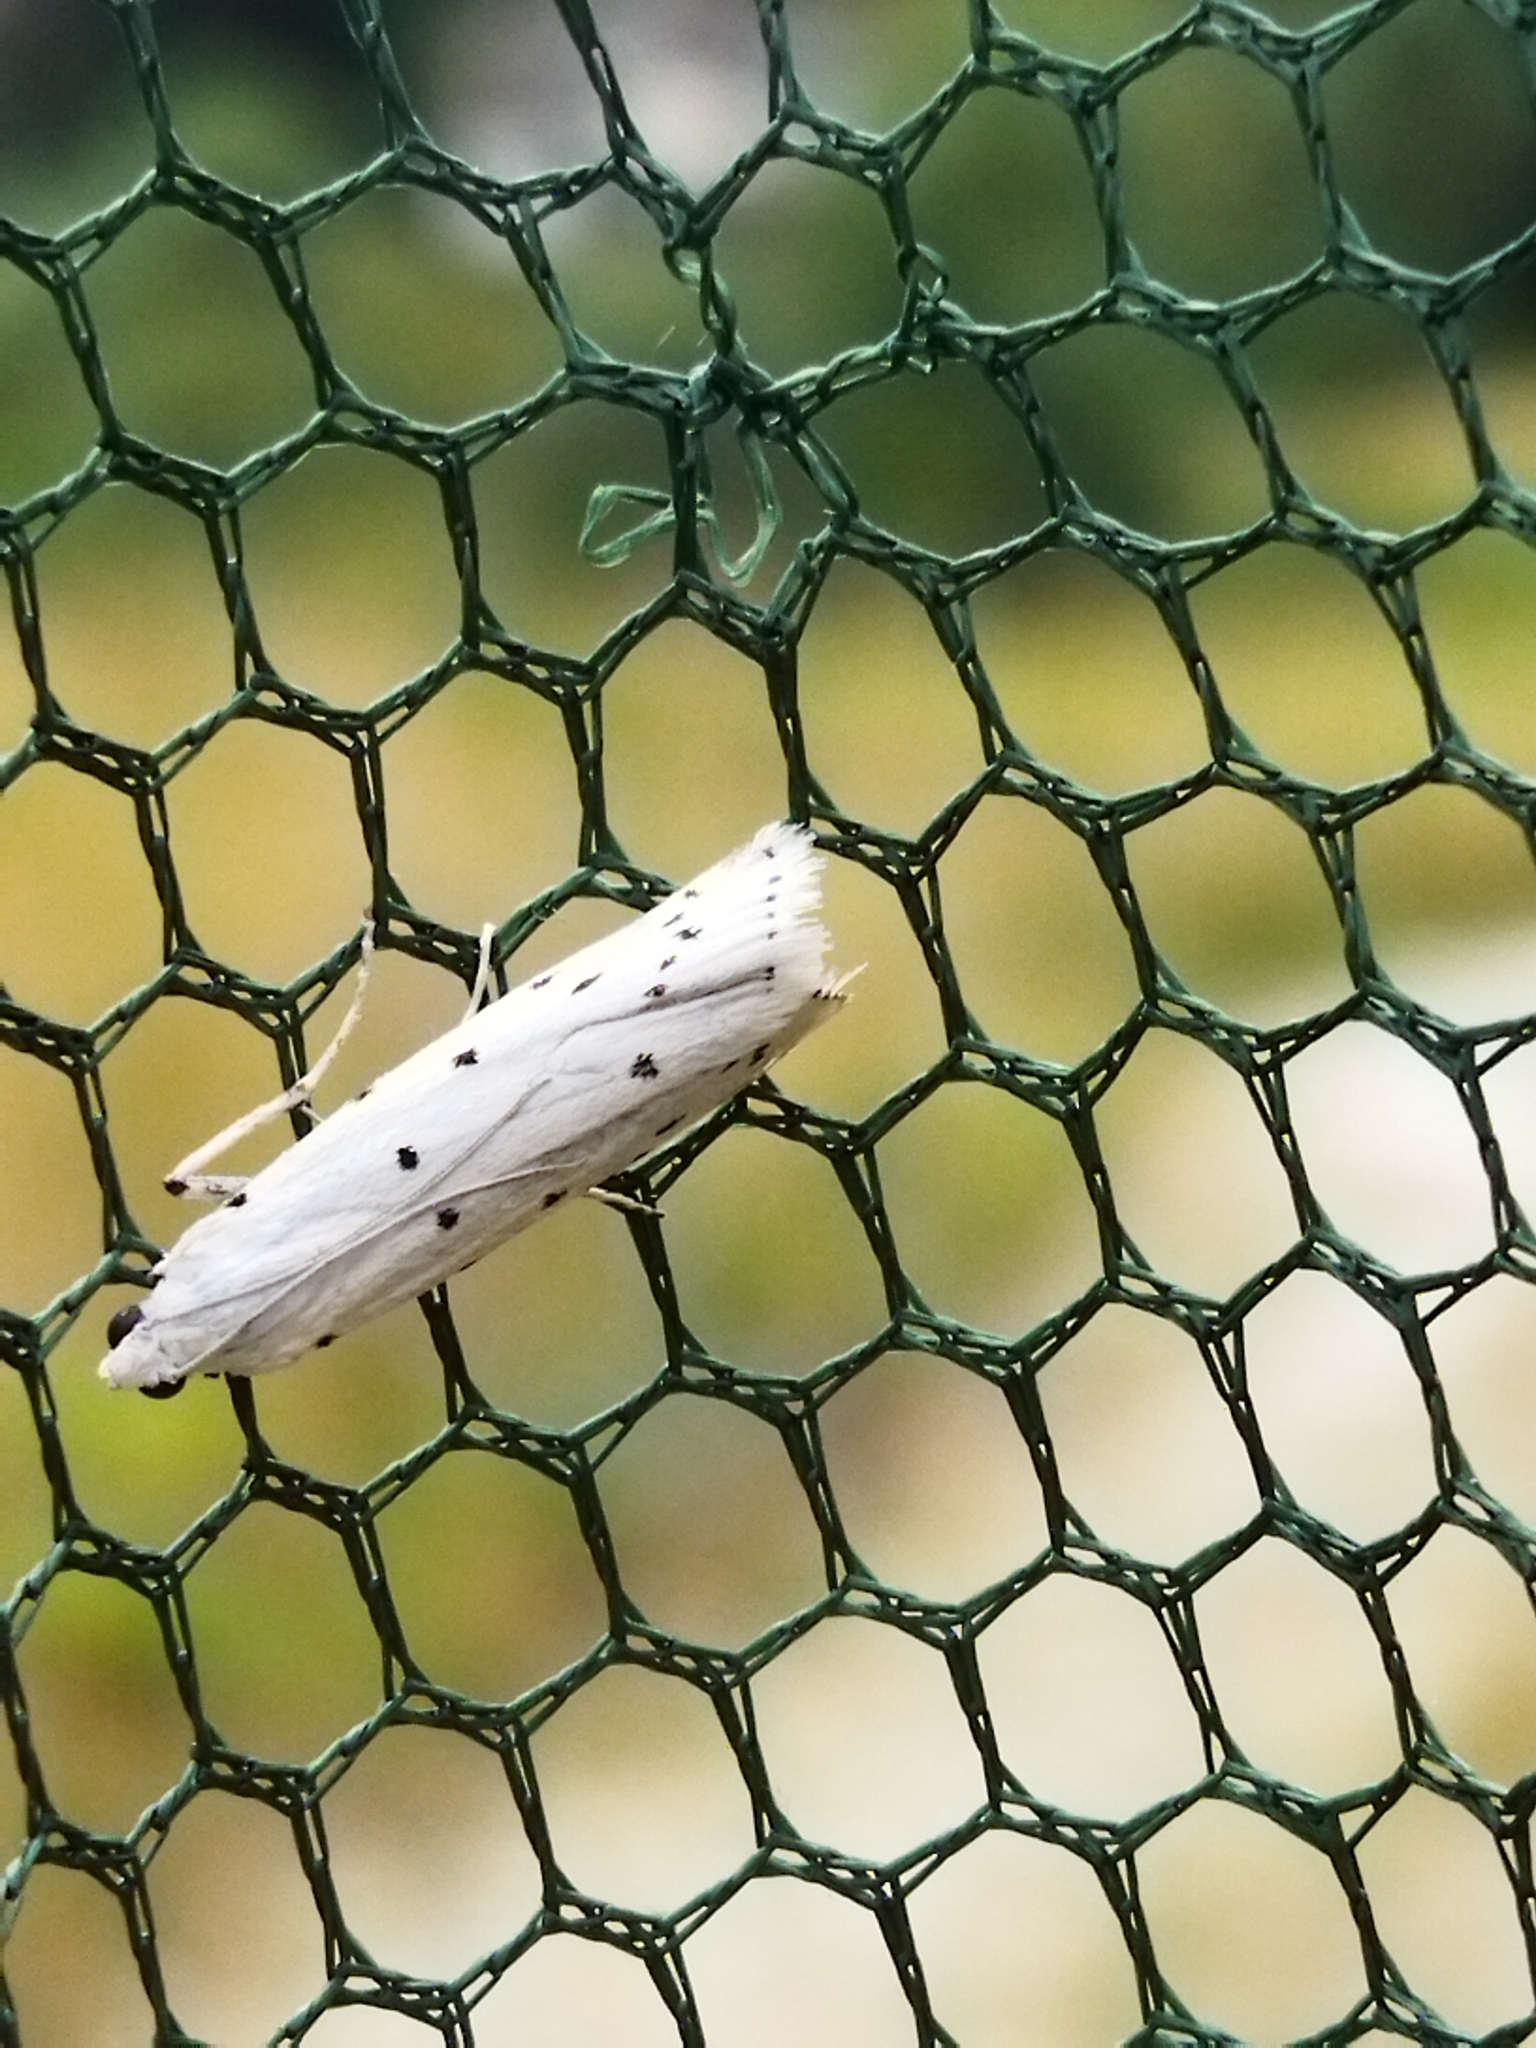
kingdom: Animalia
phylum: Arthropoda
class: Insecta
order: Lepidoptera
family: Pyralidae
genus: Myelois
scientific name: Myelois circumvoluta
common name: Thistle ermine
